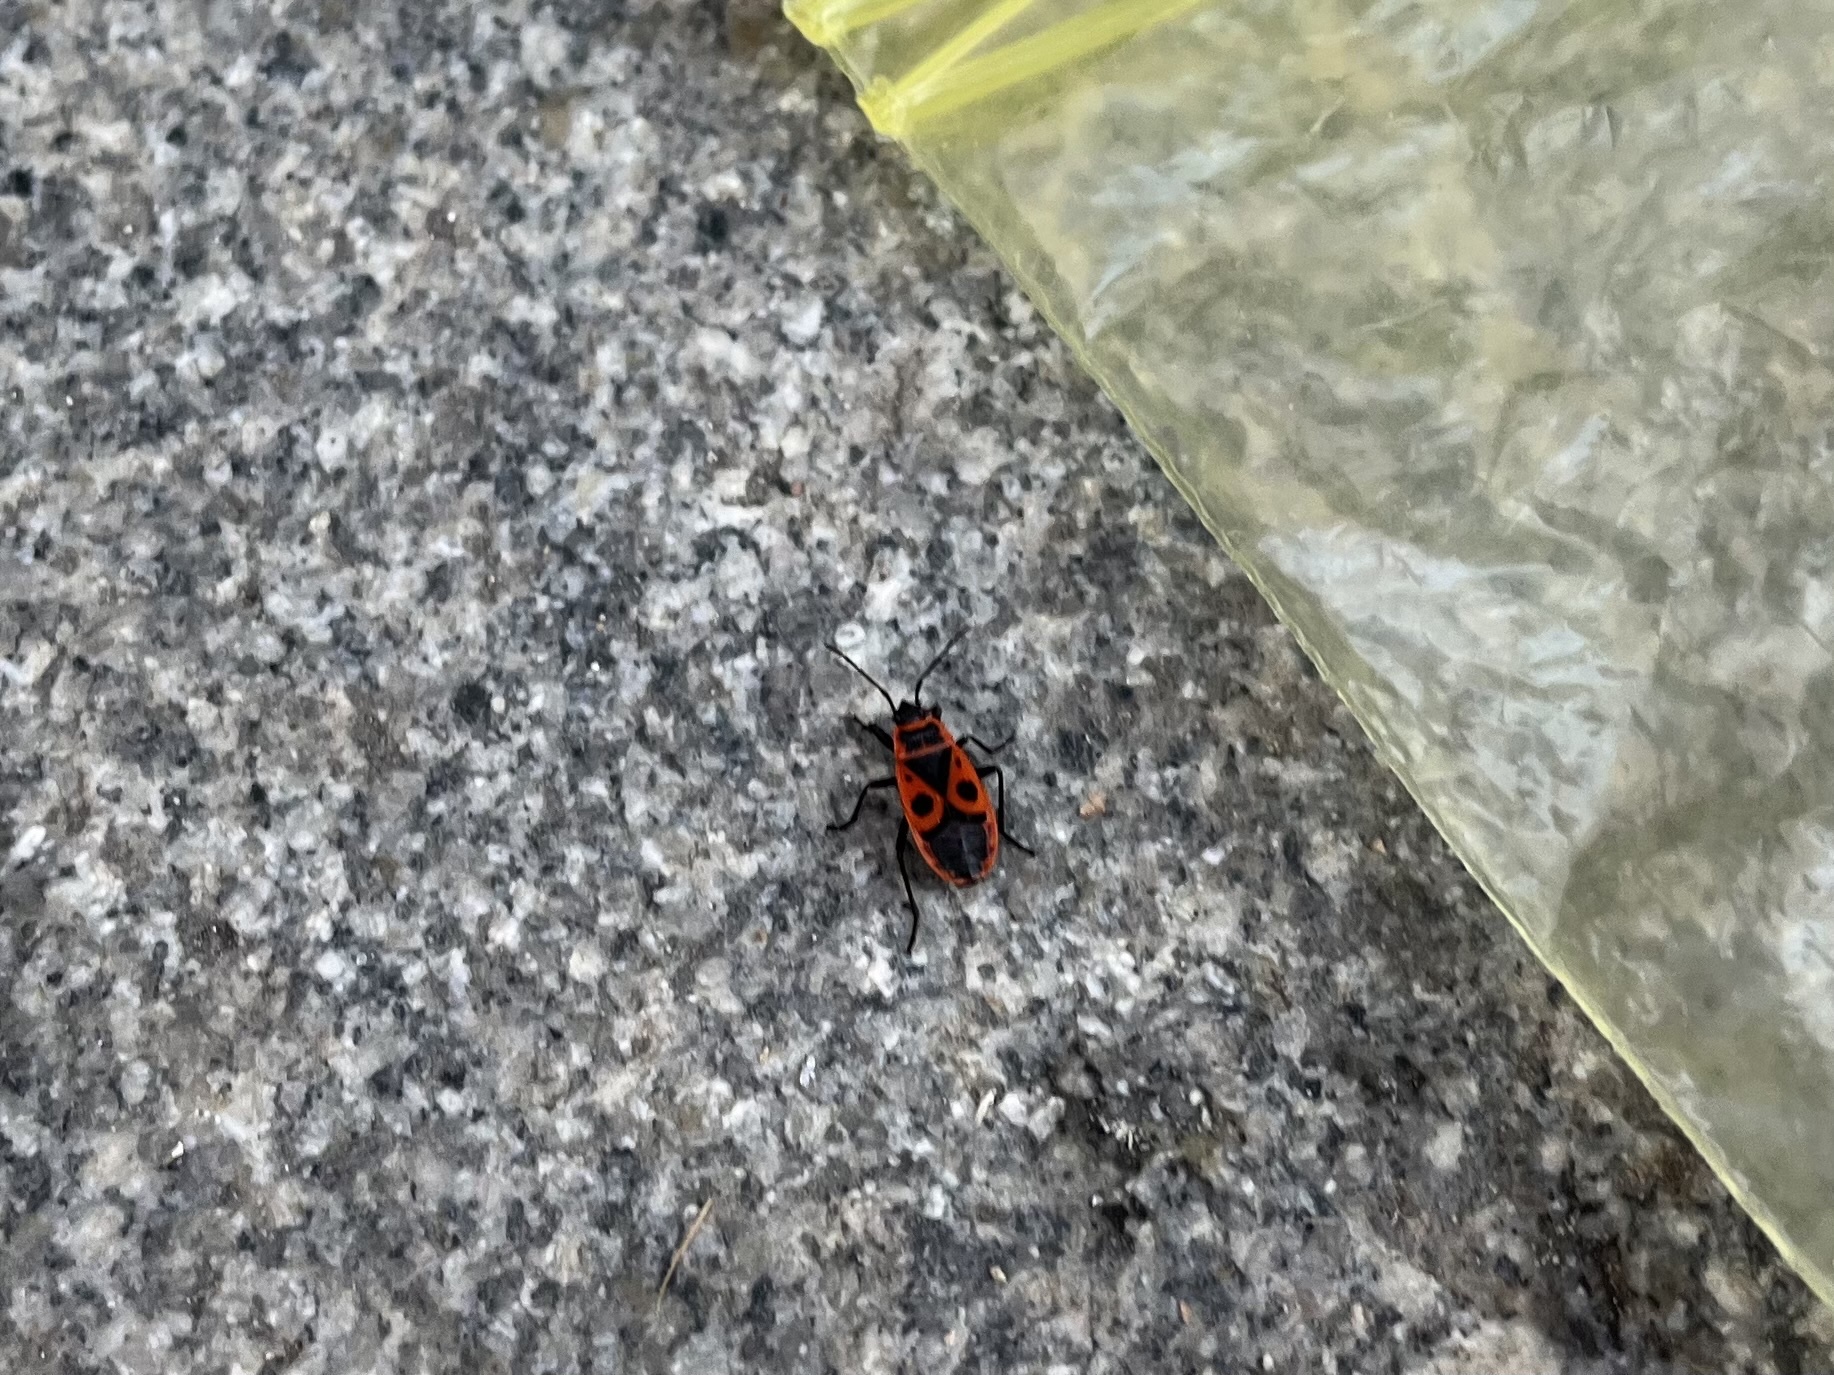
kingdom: Animalia
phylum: Arthropoda
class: Insecta
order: Hemiptera
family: Pyrrhocoridae
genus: Pyrrhocoris
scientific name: Pyrrhocoris apterus
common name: Firebug
